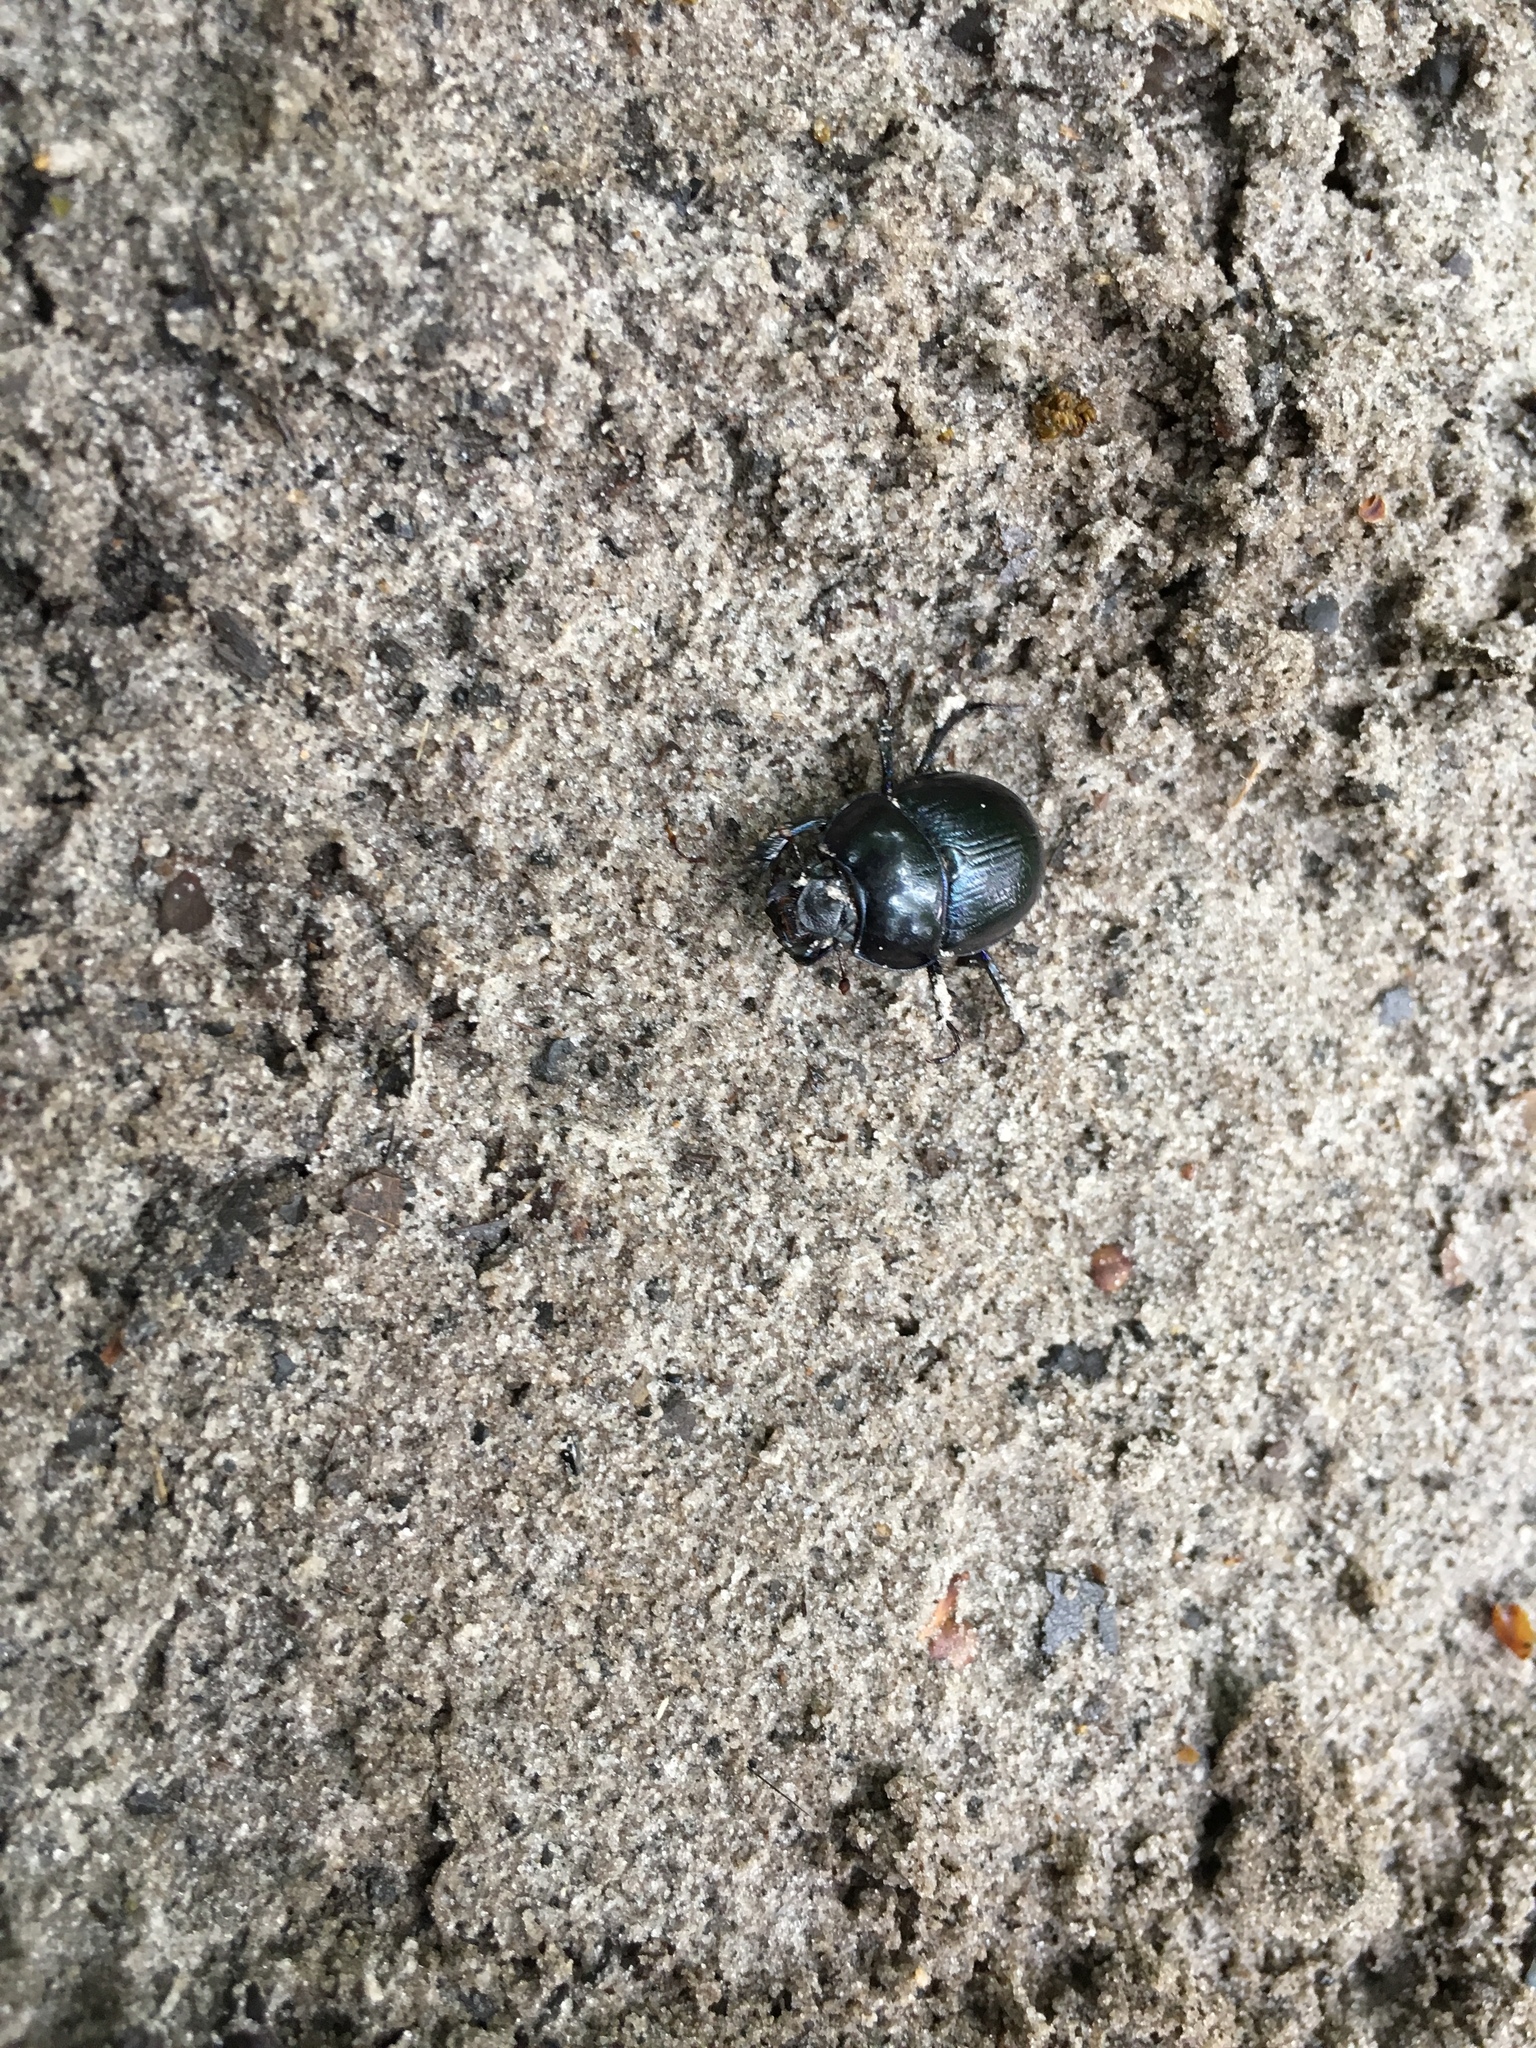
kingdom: Animalia
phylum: Arthropoda
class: Insecta
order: Coleoptera
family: Geotrupidae
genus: Anoplotrupes
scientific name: Anoplotrupes stercorosus
